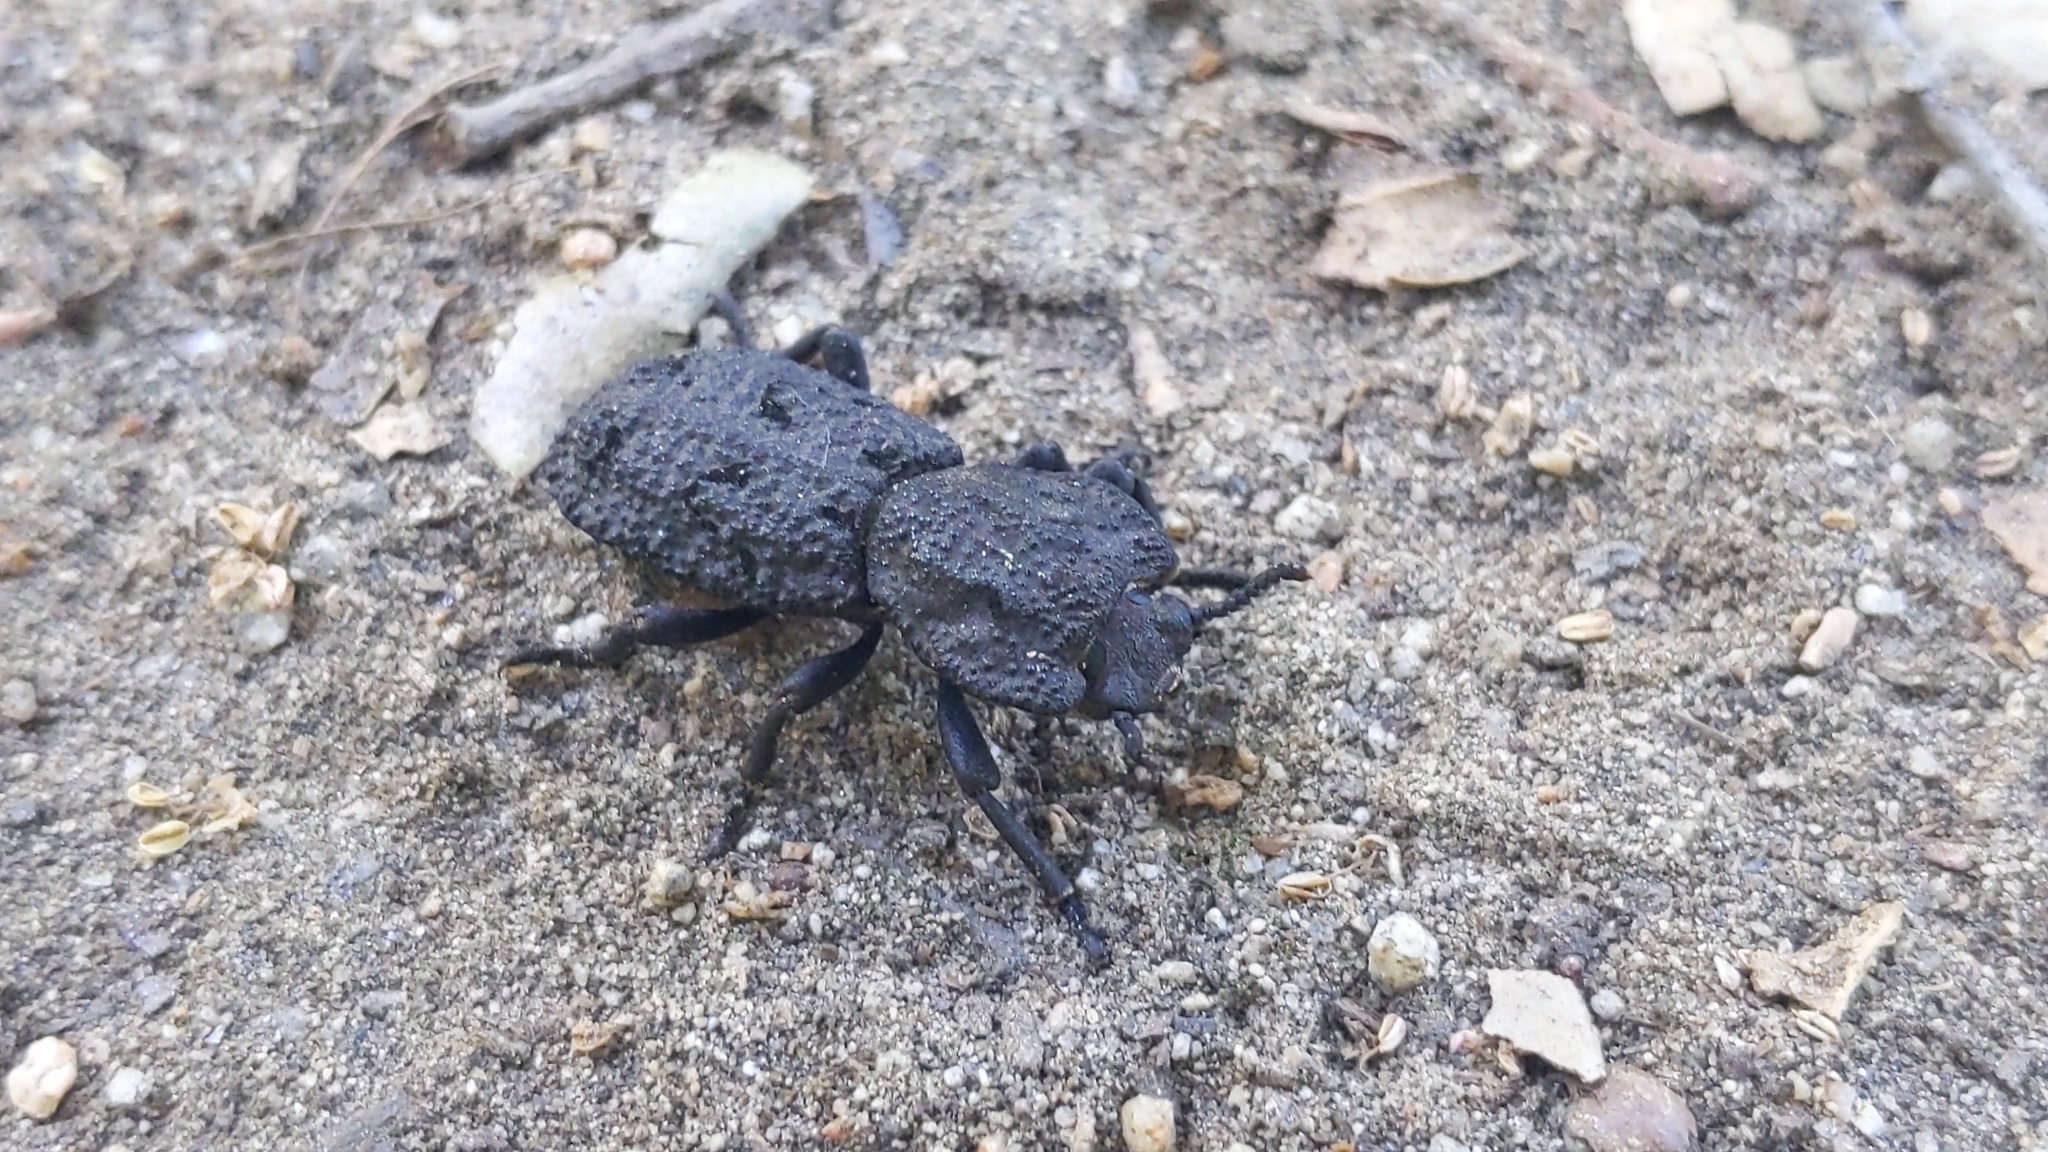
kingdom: Animalia
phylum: Arthropoda
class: Insecta
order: Coleoptera
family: Zopheridae
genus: Phloeodes
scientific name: Phloeodes diabolicus
